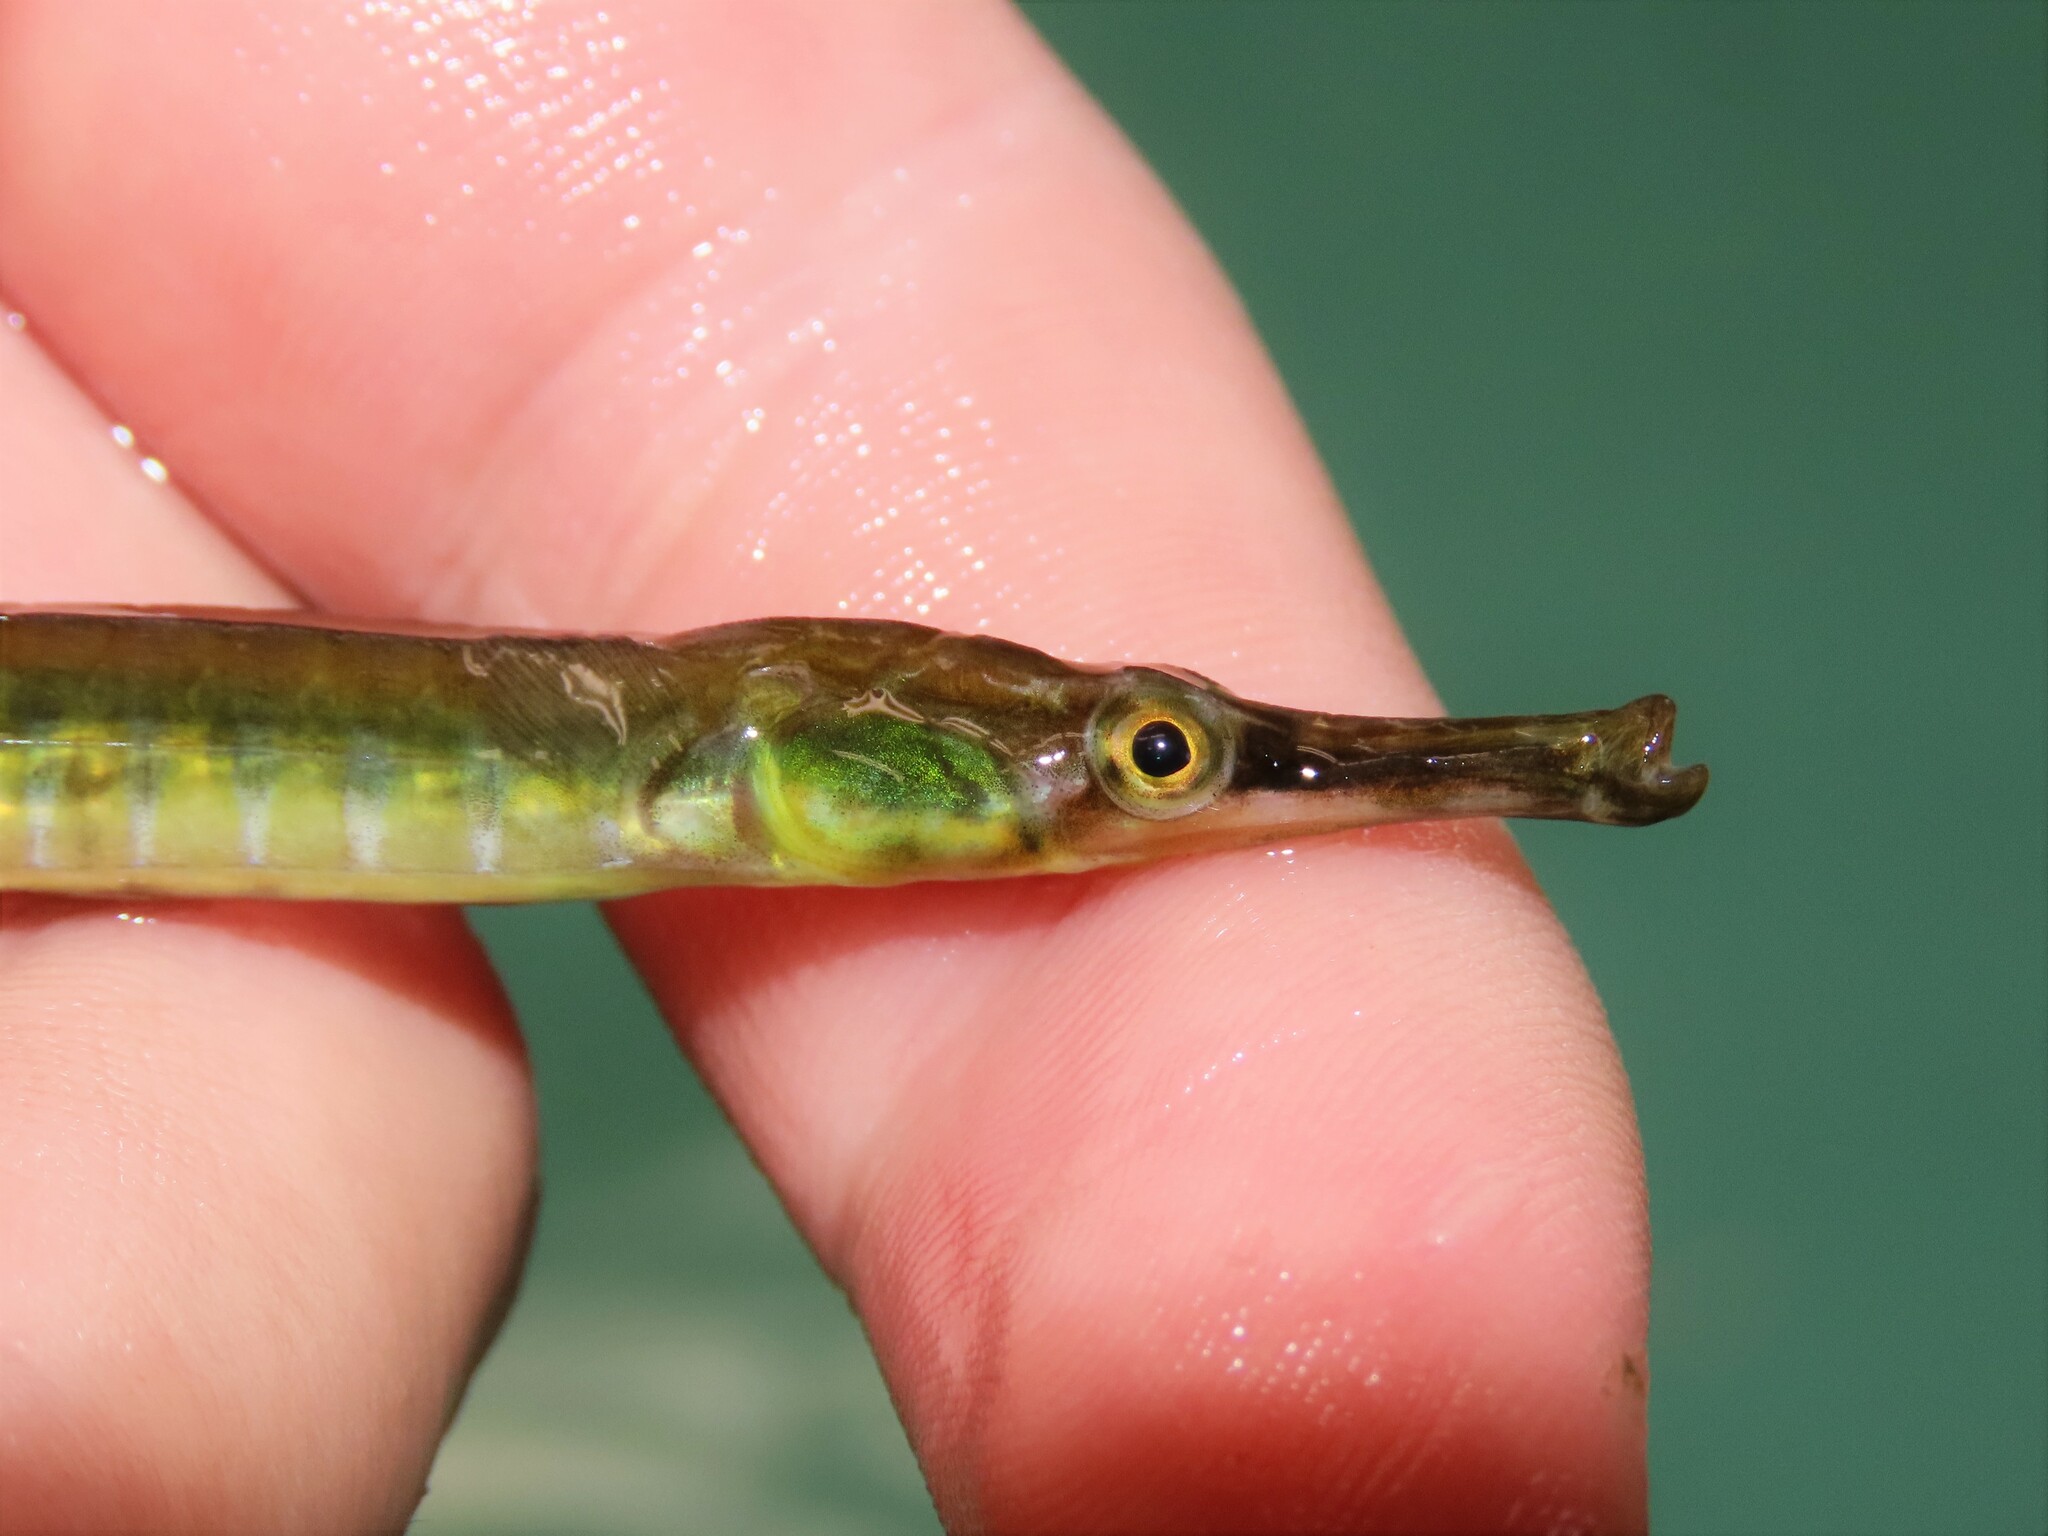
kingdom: Animalia
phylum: Chordata
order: Syngnathiformes
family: Syngnathidae
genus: Syngnathus
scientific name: Syngnathus fuscus
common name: Northern pipefish
